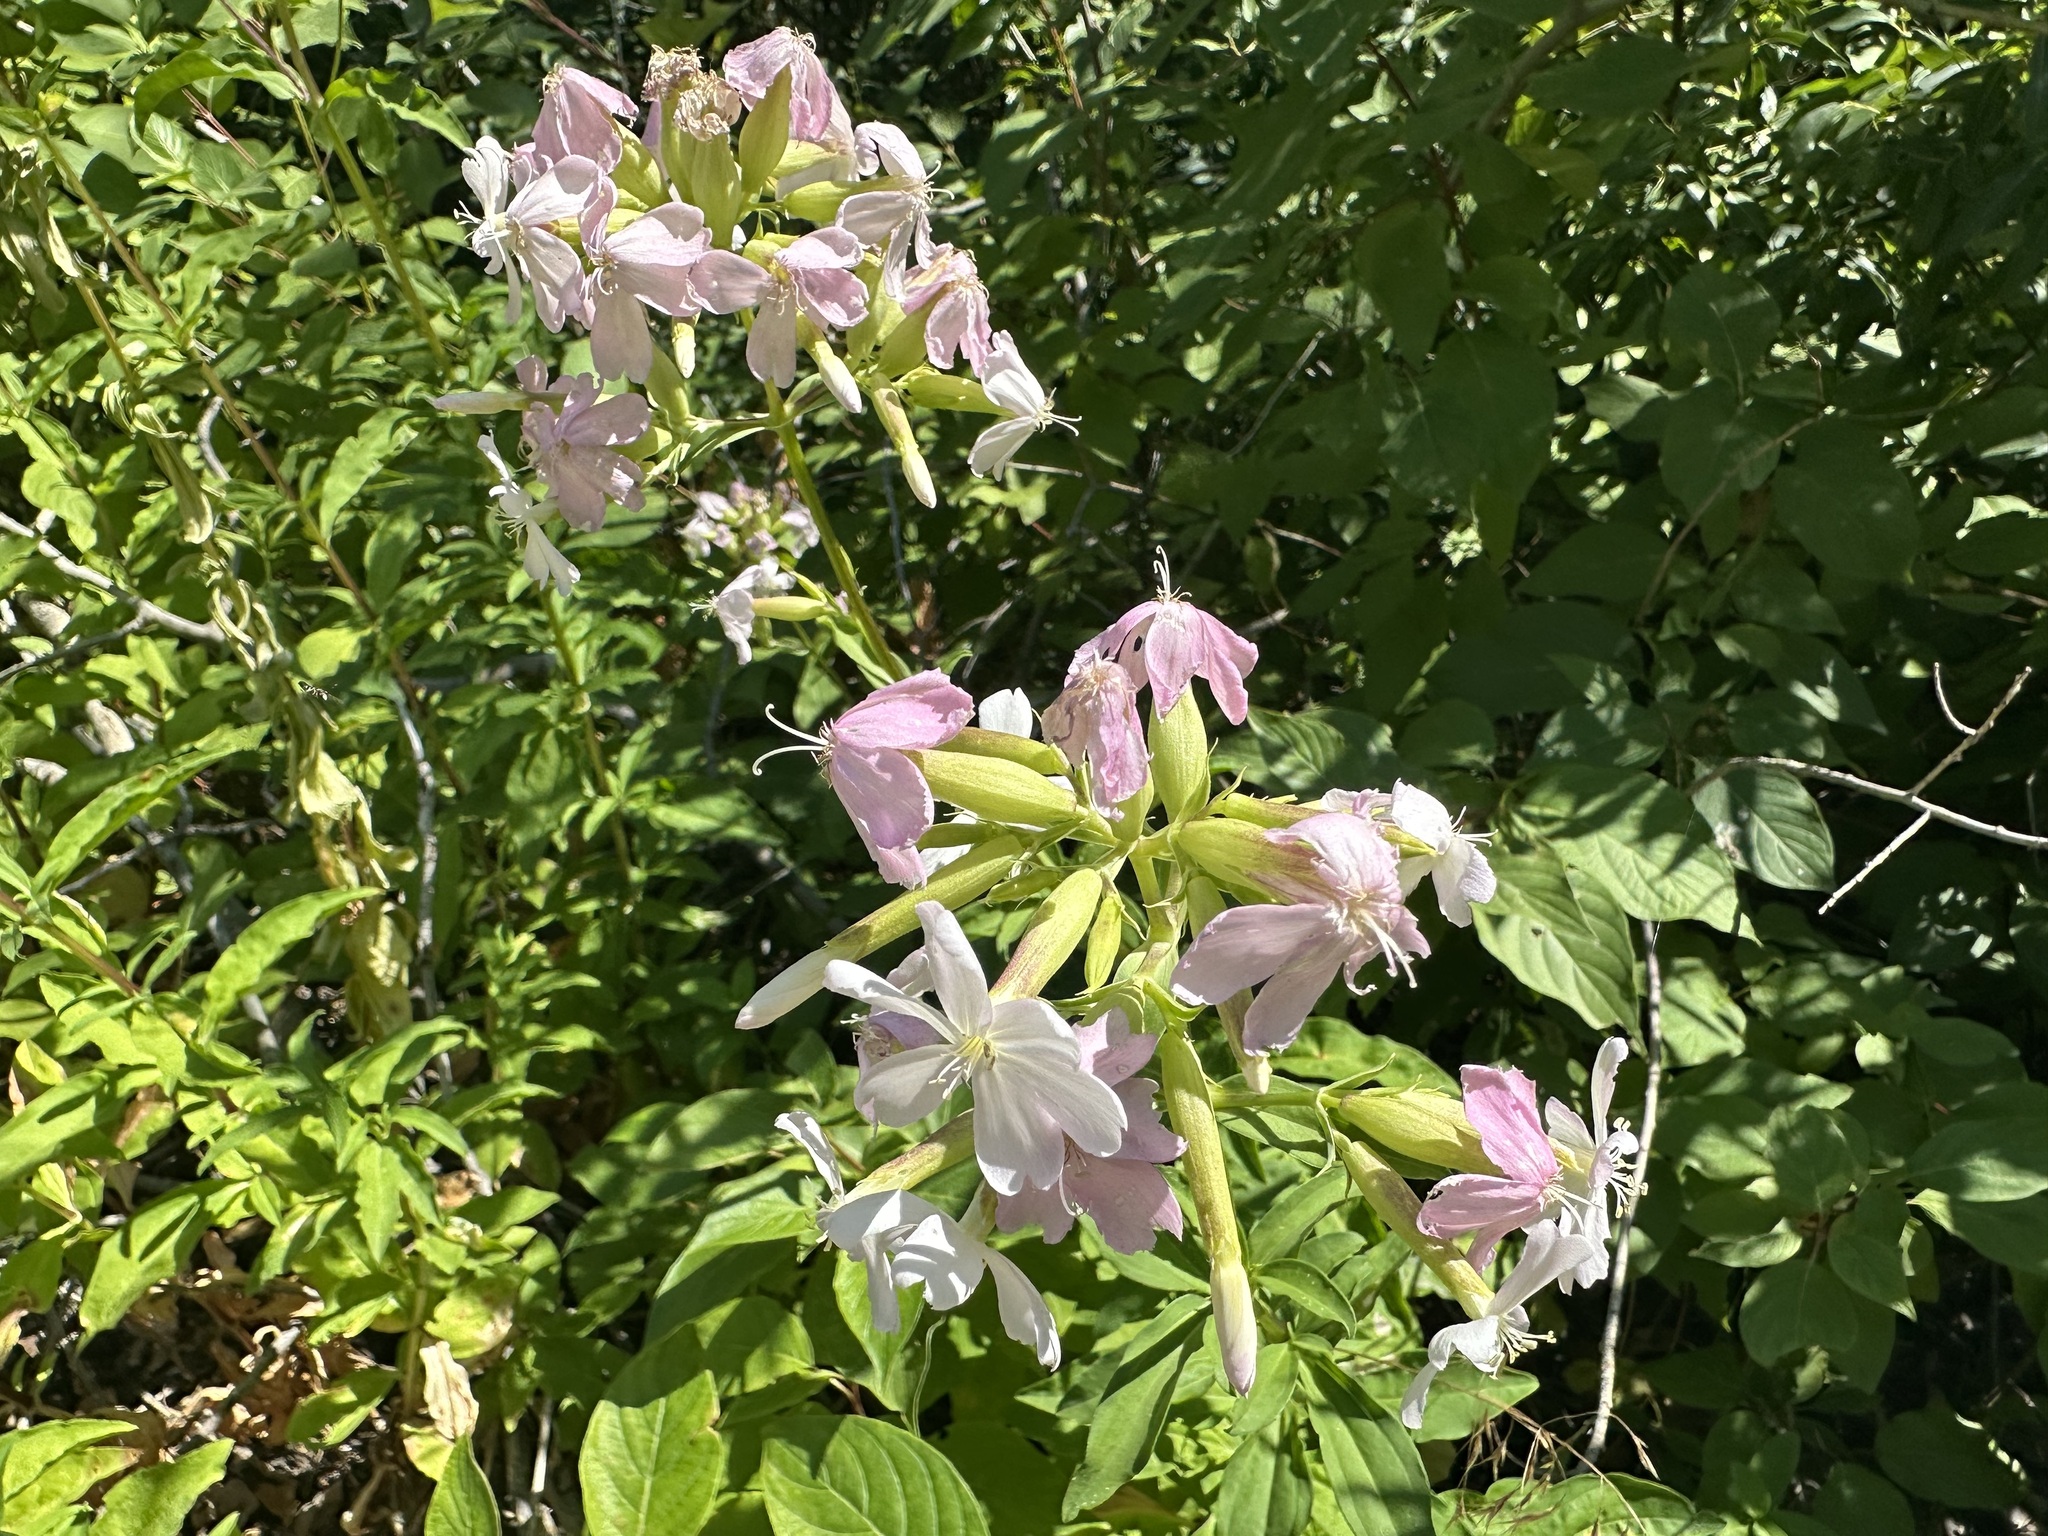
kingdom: Plantae
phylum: Tracheophyta
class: Magnoliopsida
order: Caryophyllales
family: Caryophyllaceae
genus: Saponaria
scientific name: Saponaria officinalis
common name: Soapwort
